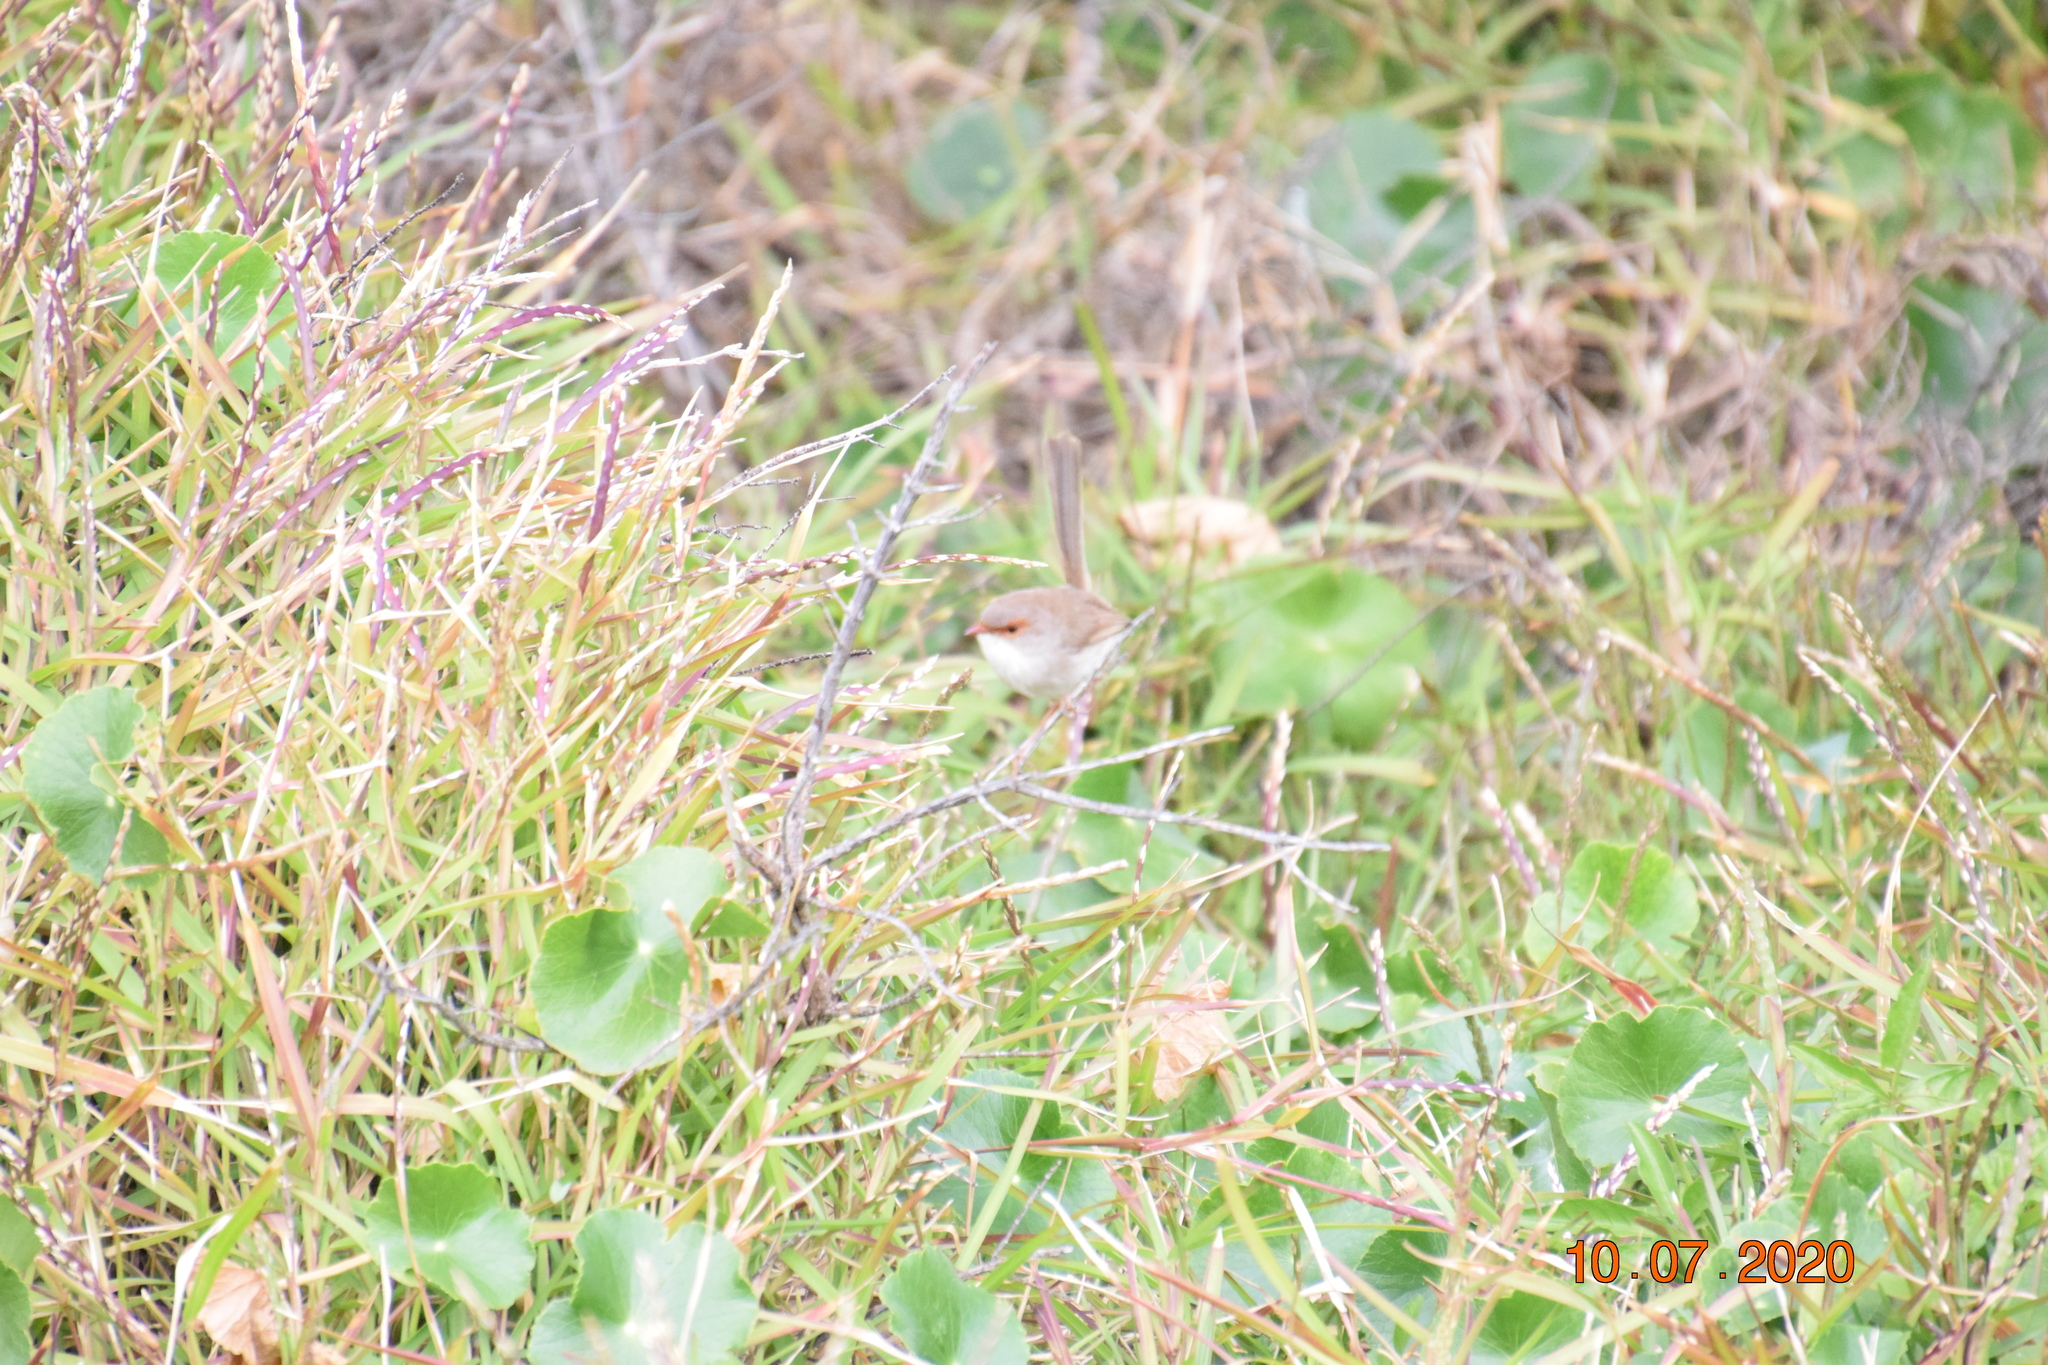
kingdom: Animalia
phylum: Chordata
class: Aves
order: Passeriformes
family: Maluridae
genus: Malurus
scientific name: Malurus cyaneus
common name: Superb fairywren
